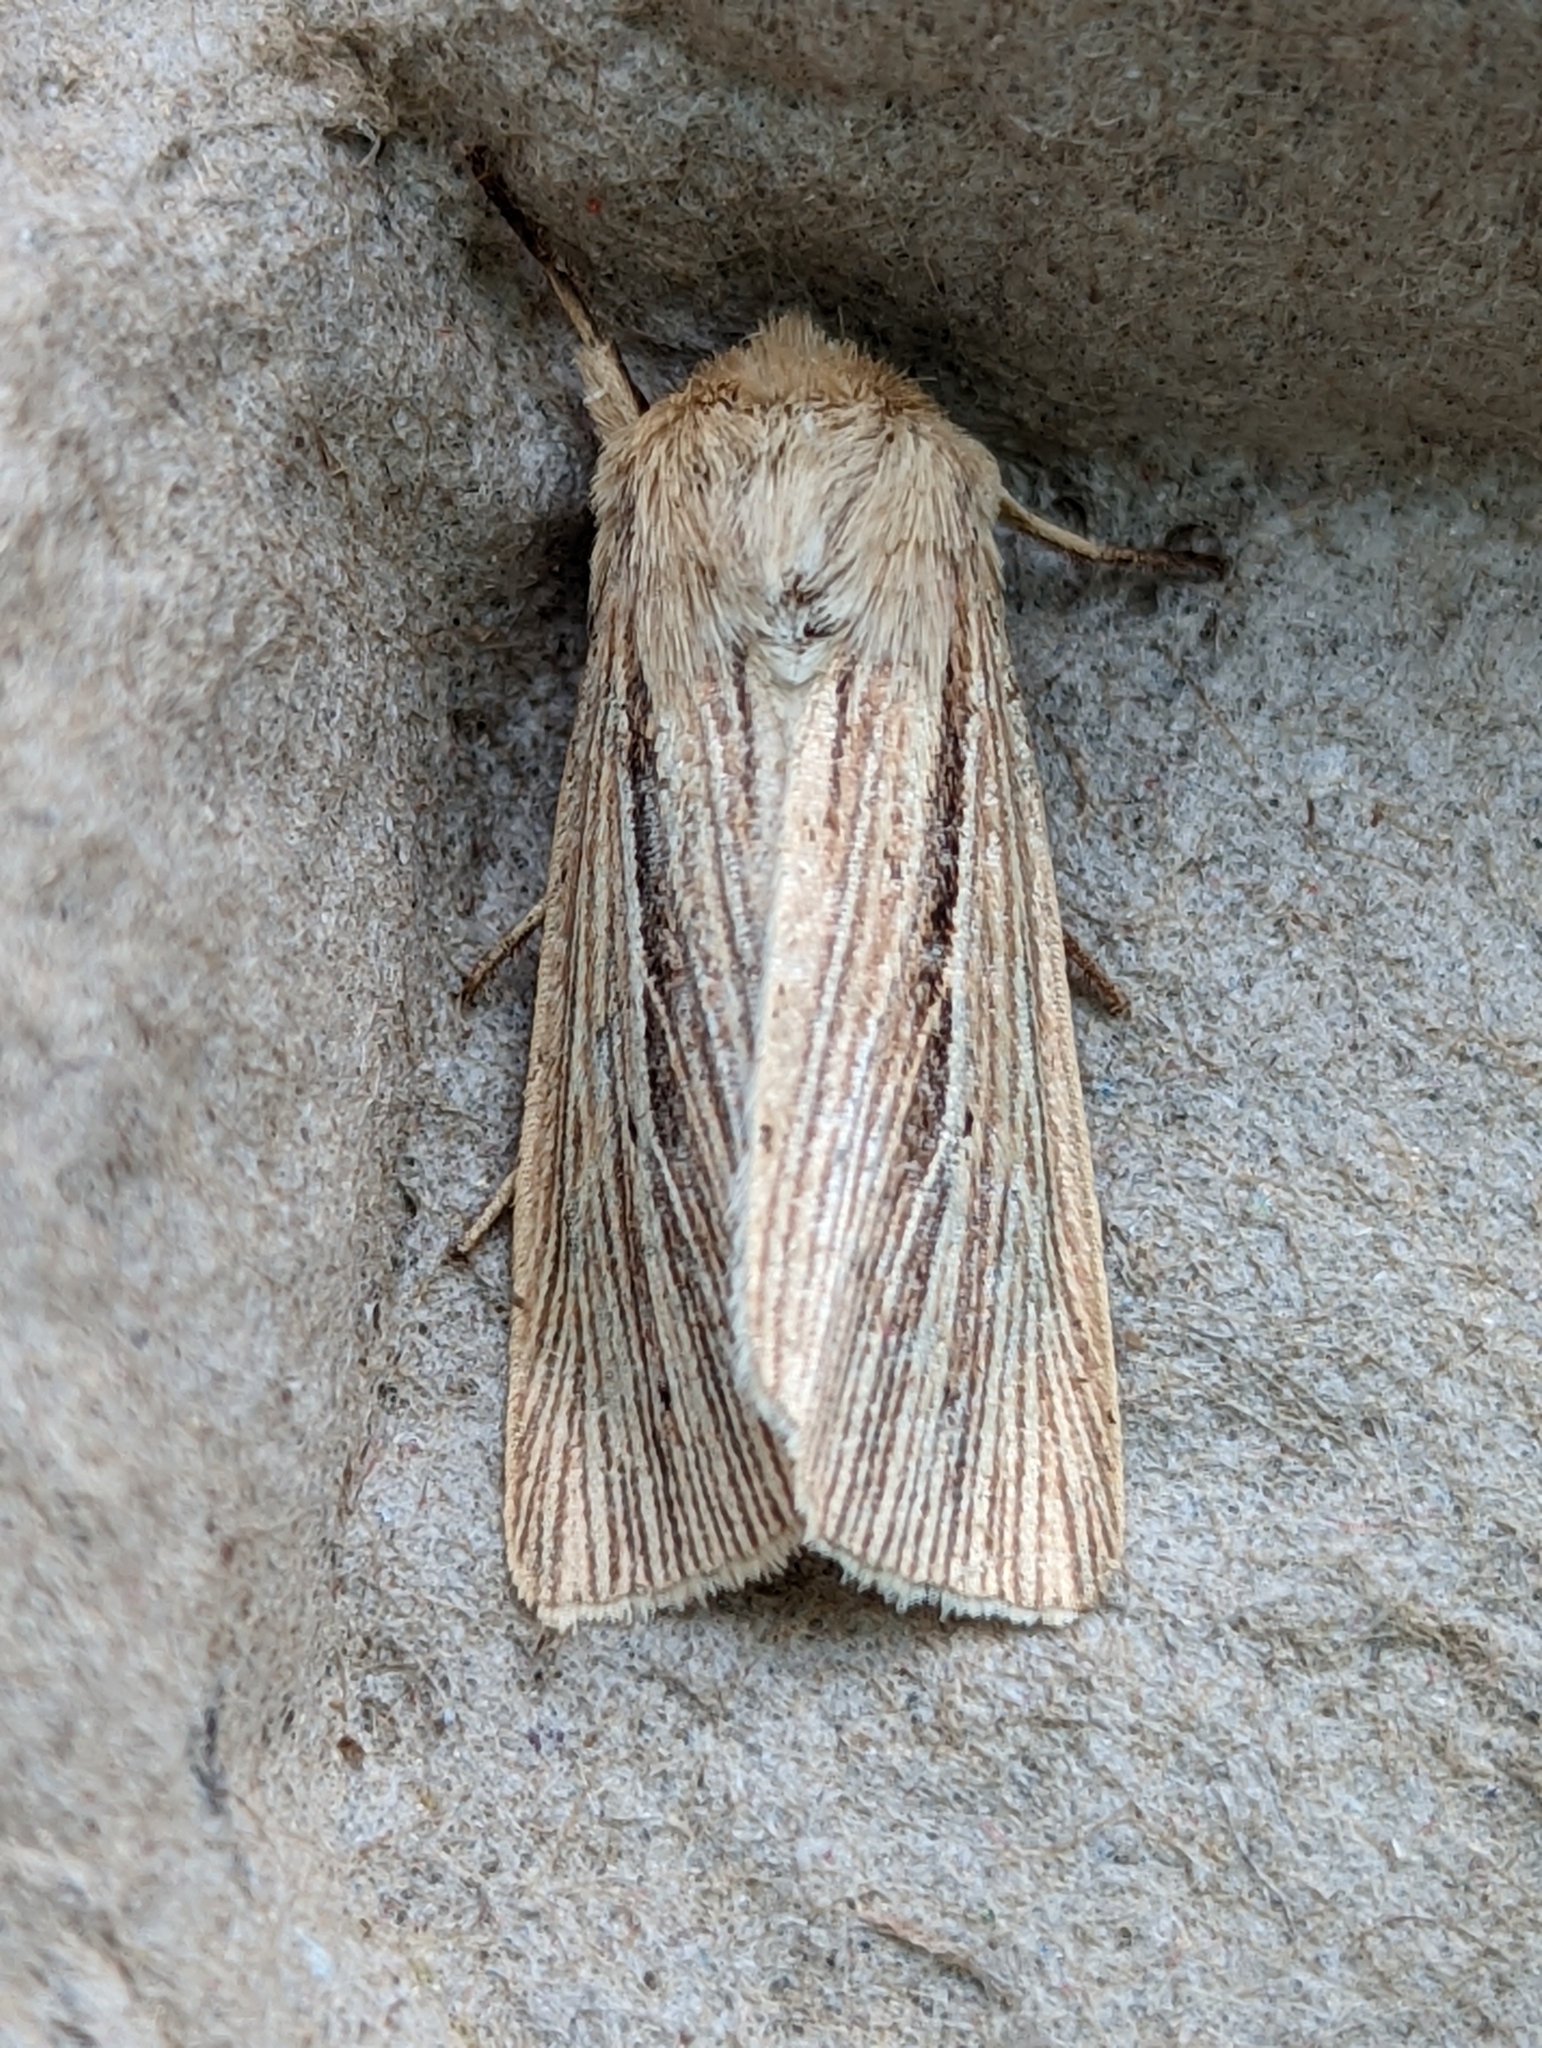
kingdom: Animalia
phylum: Arthropoda
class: Insecta
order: Lepidoptera
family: Noctuidae
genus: Mythimna
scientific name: Mythimna impura
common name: Smoky wainscot
